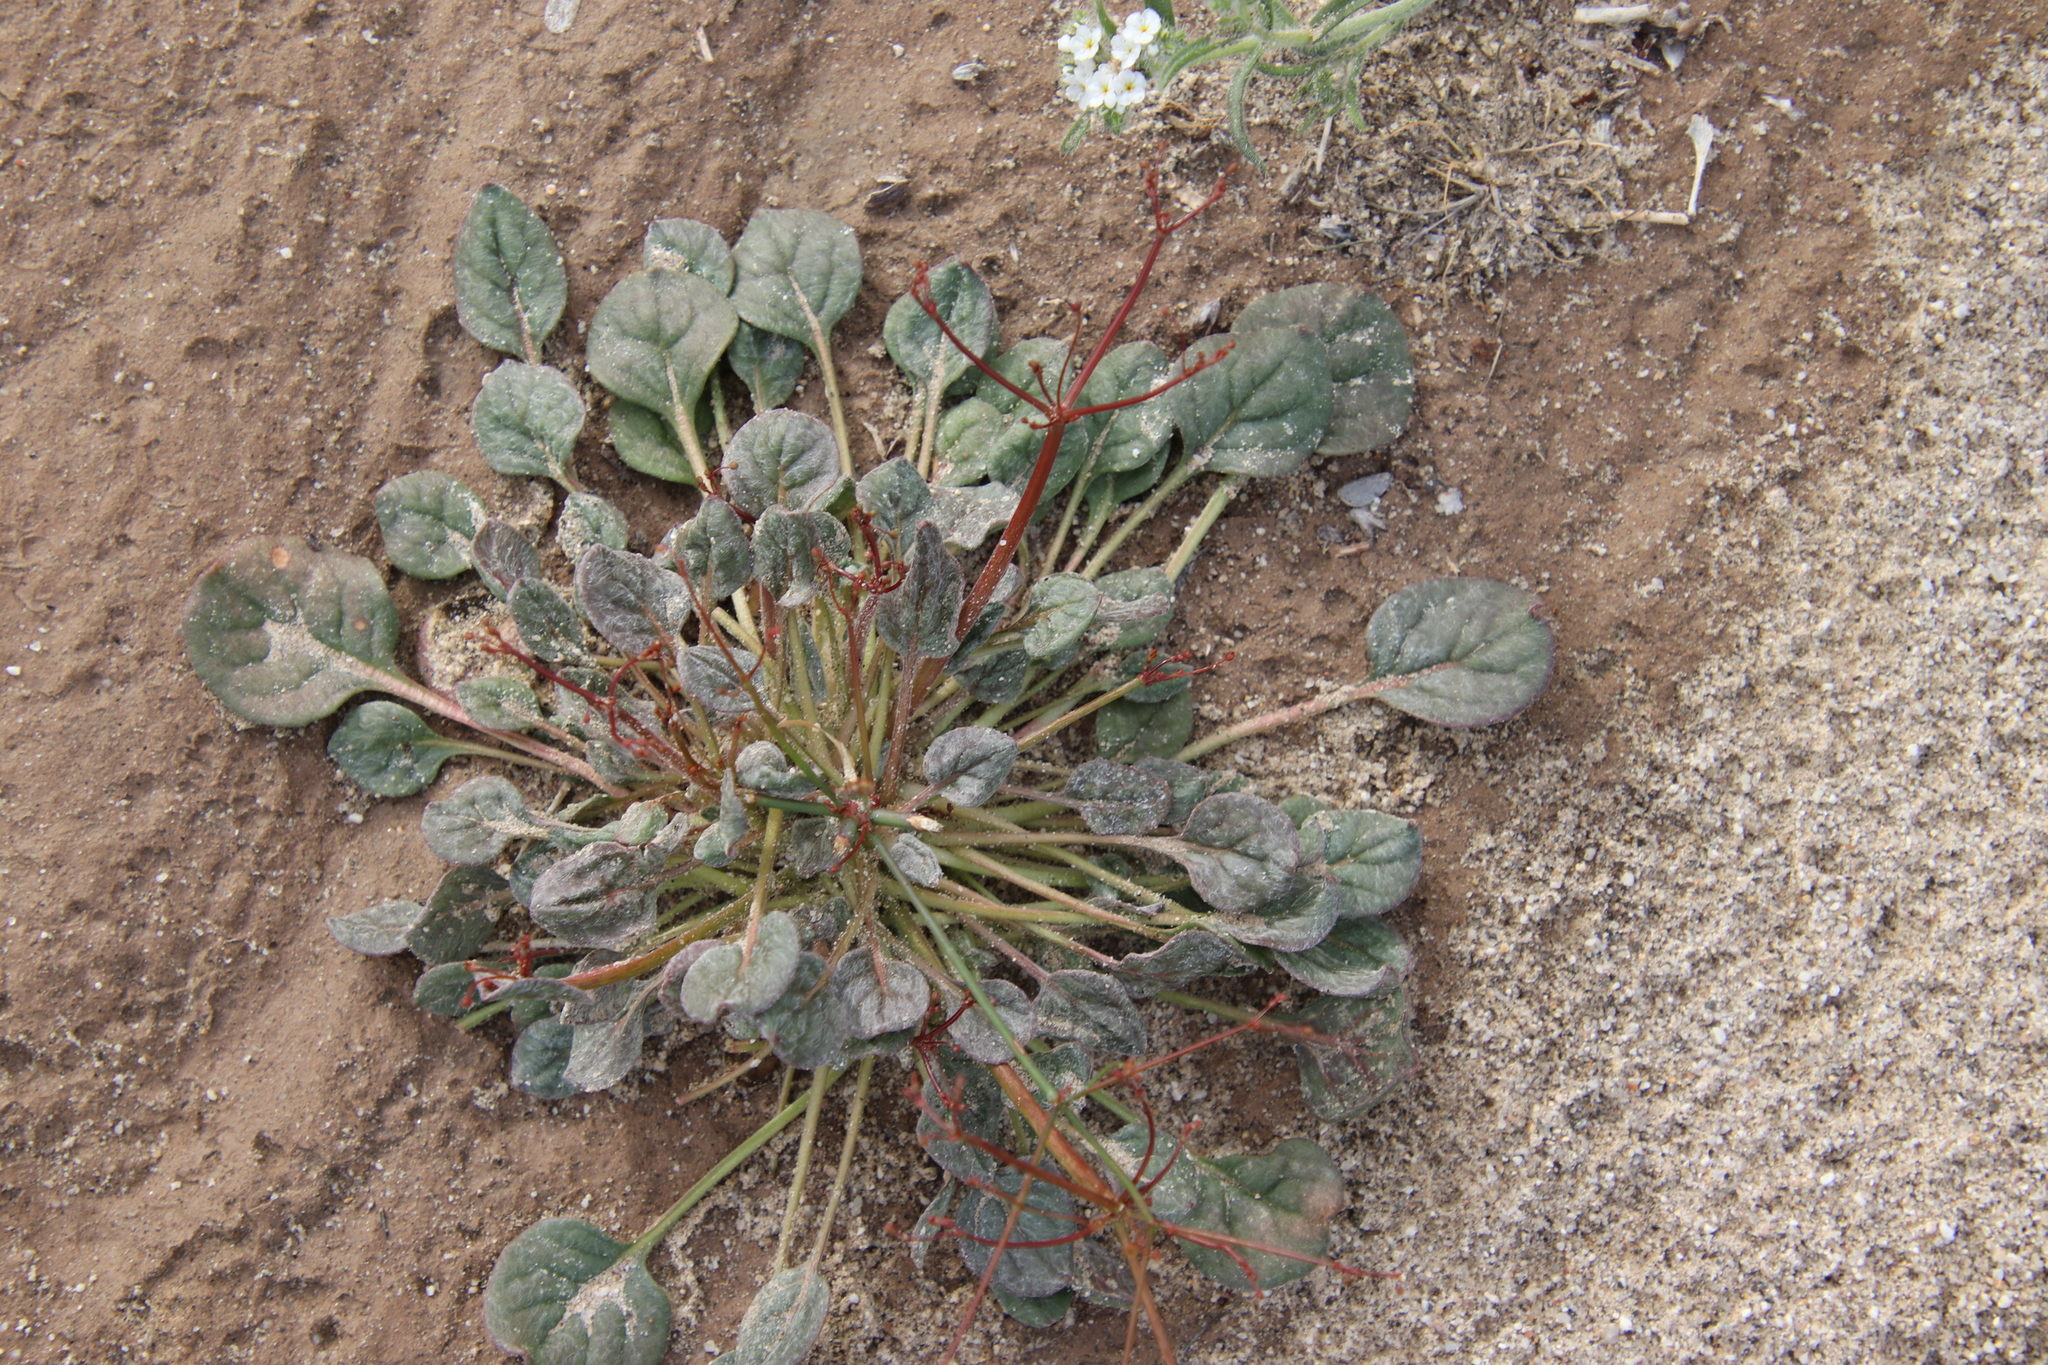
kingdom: Plantae
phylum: Tracheophyta
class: Magnoliopsida
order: Caryophyllales
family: Polygonaceae
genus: Eriogonum
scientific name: Eriogonum thomasii
